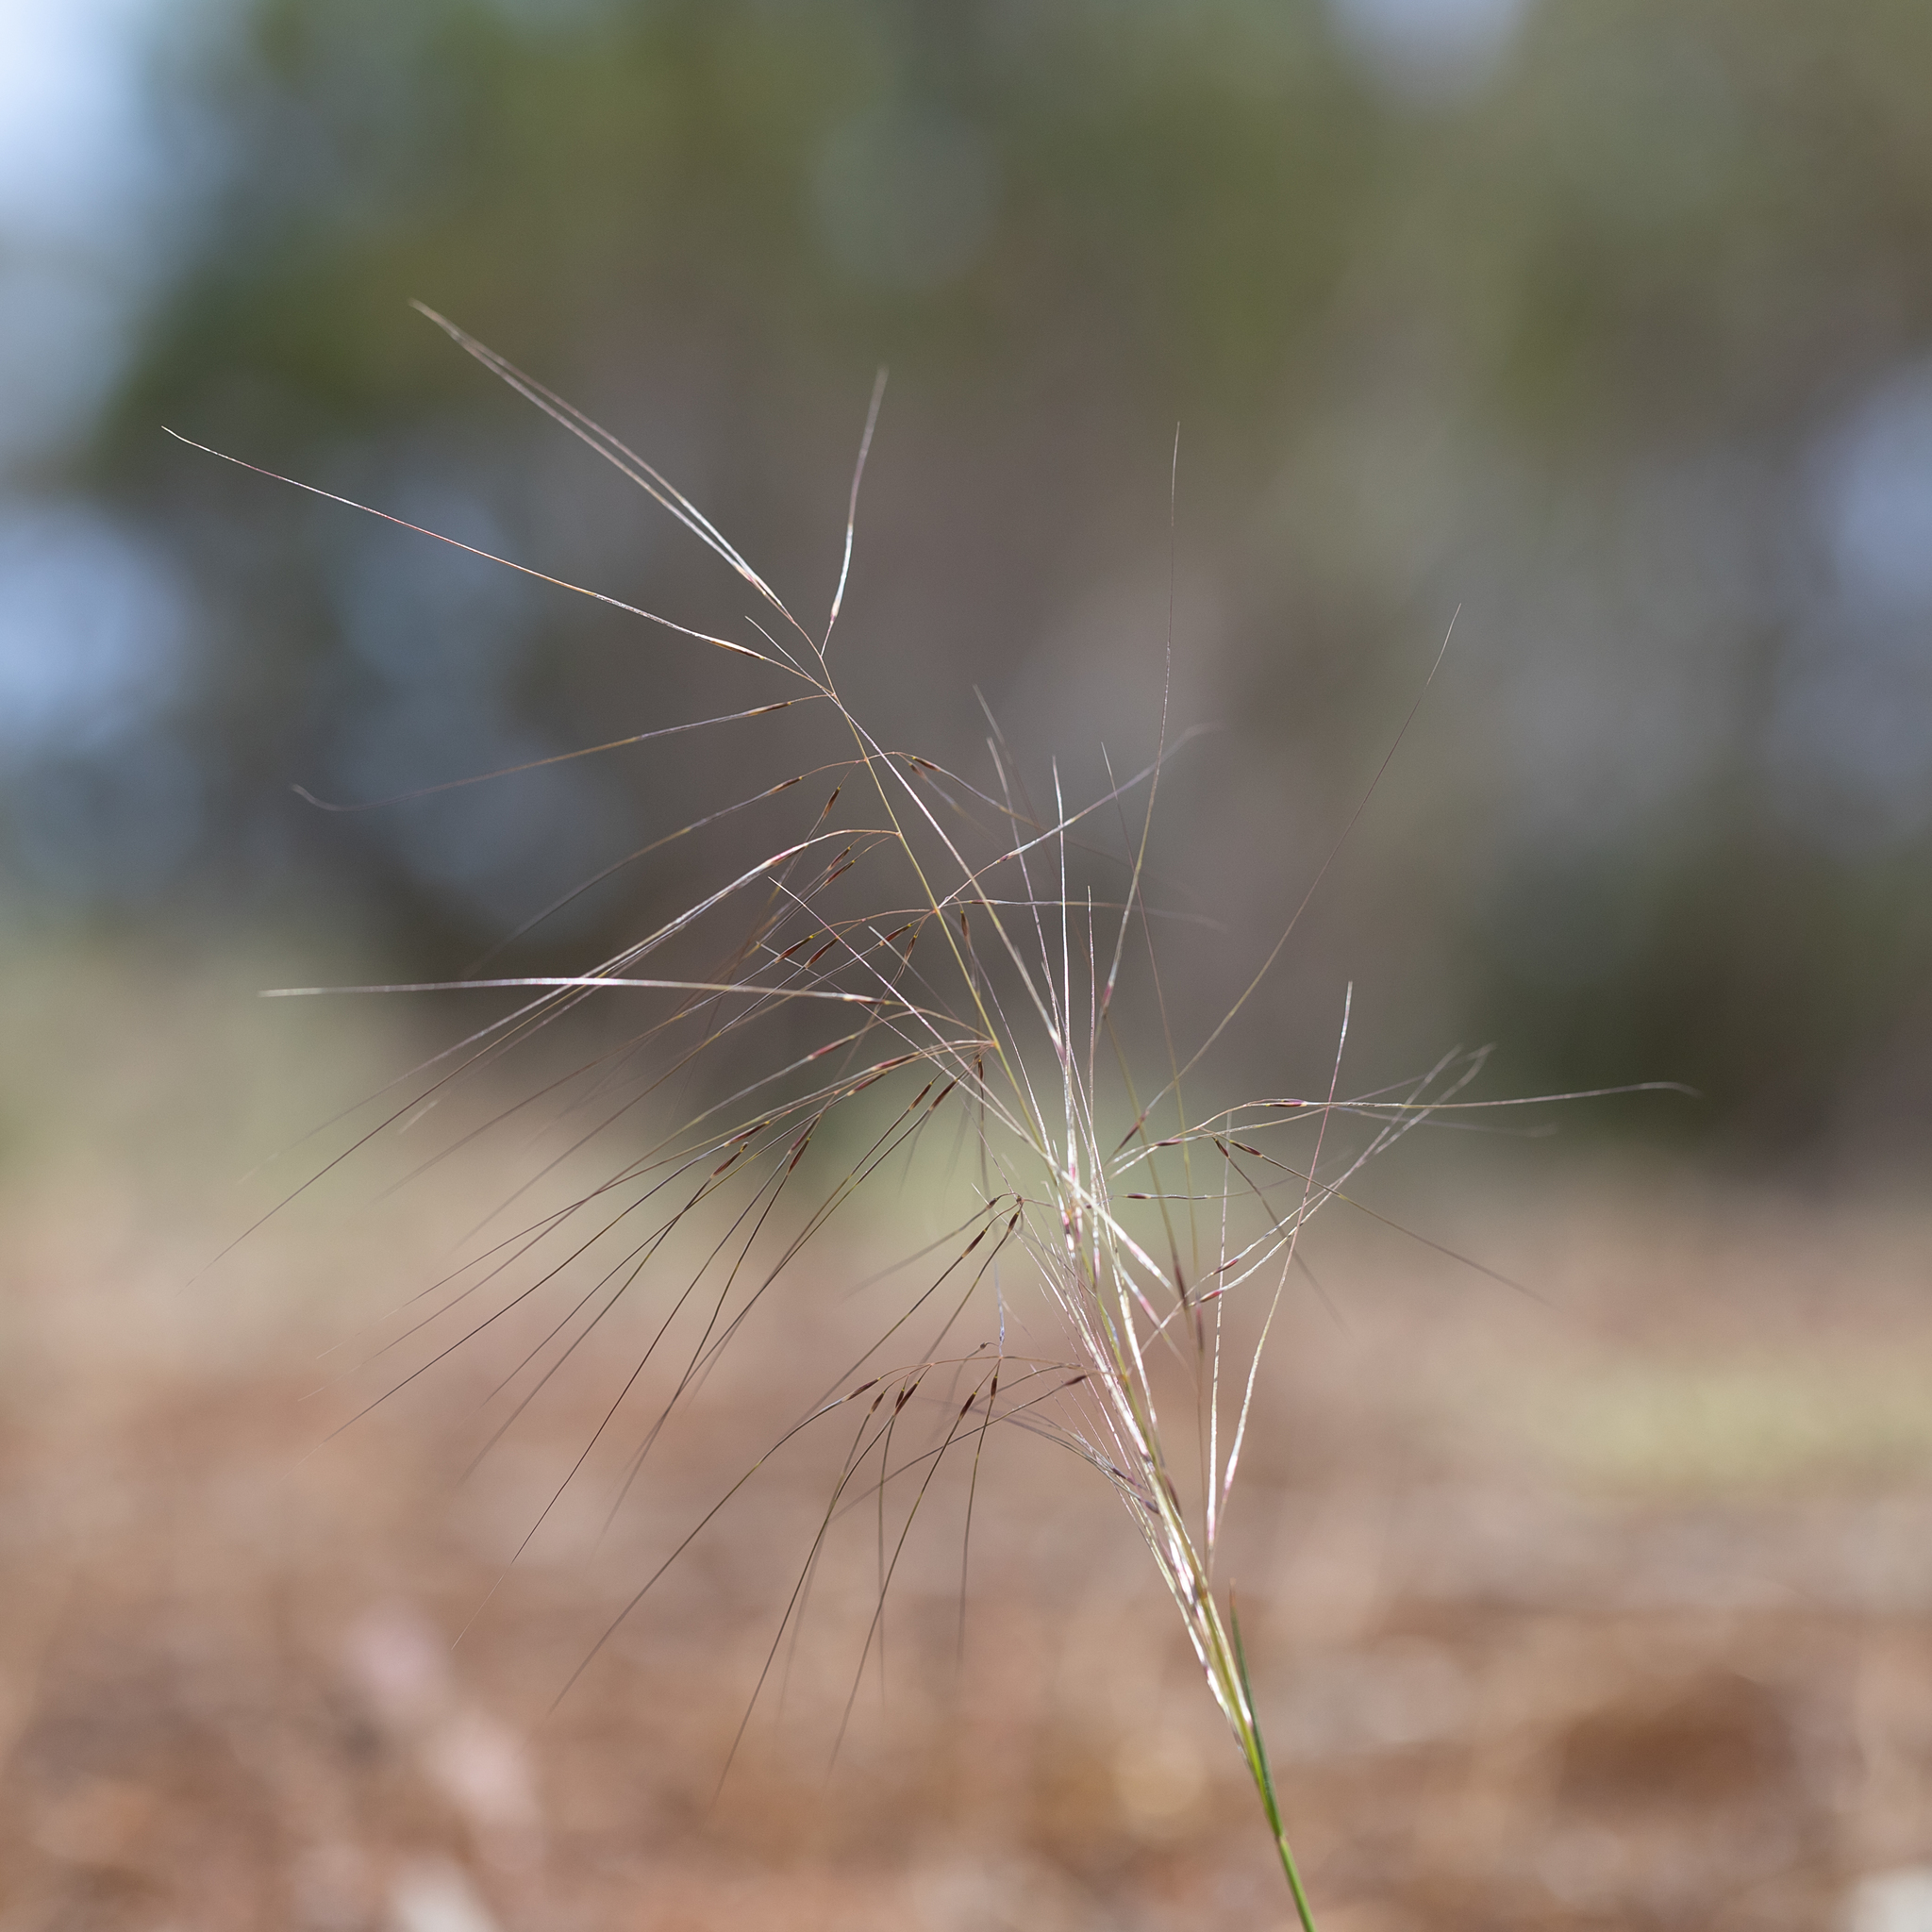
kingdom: Plantae
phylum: Tracheophyta
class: Liliopsida
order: Poales
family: Poaceae
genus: Austrostipa
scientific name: Austrostipa scabra
